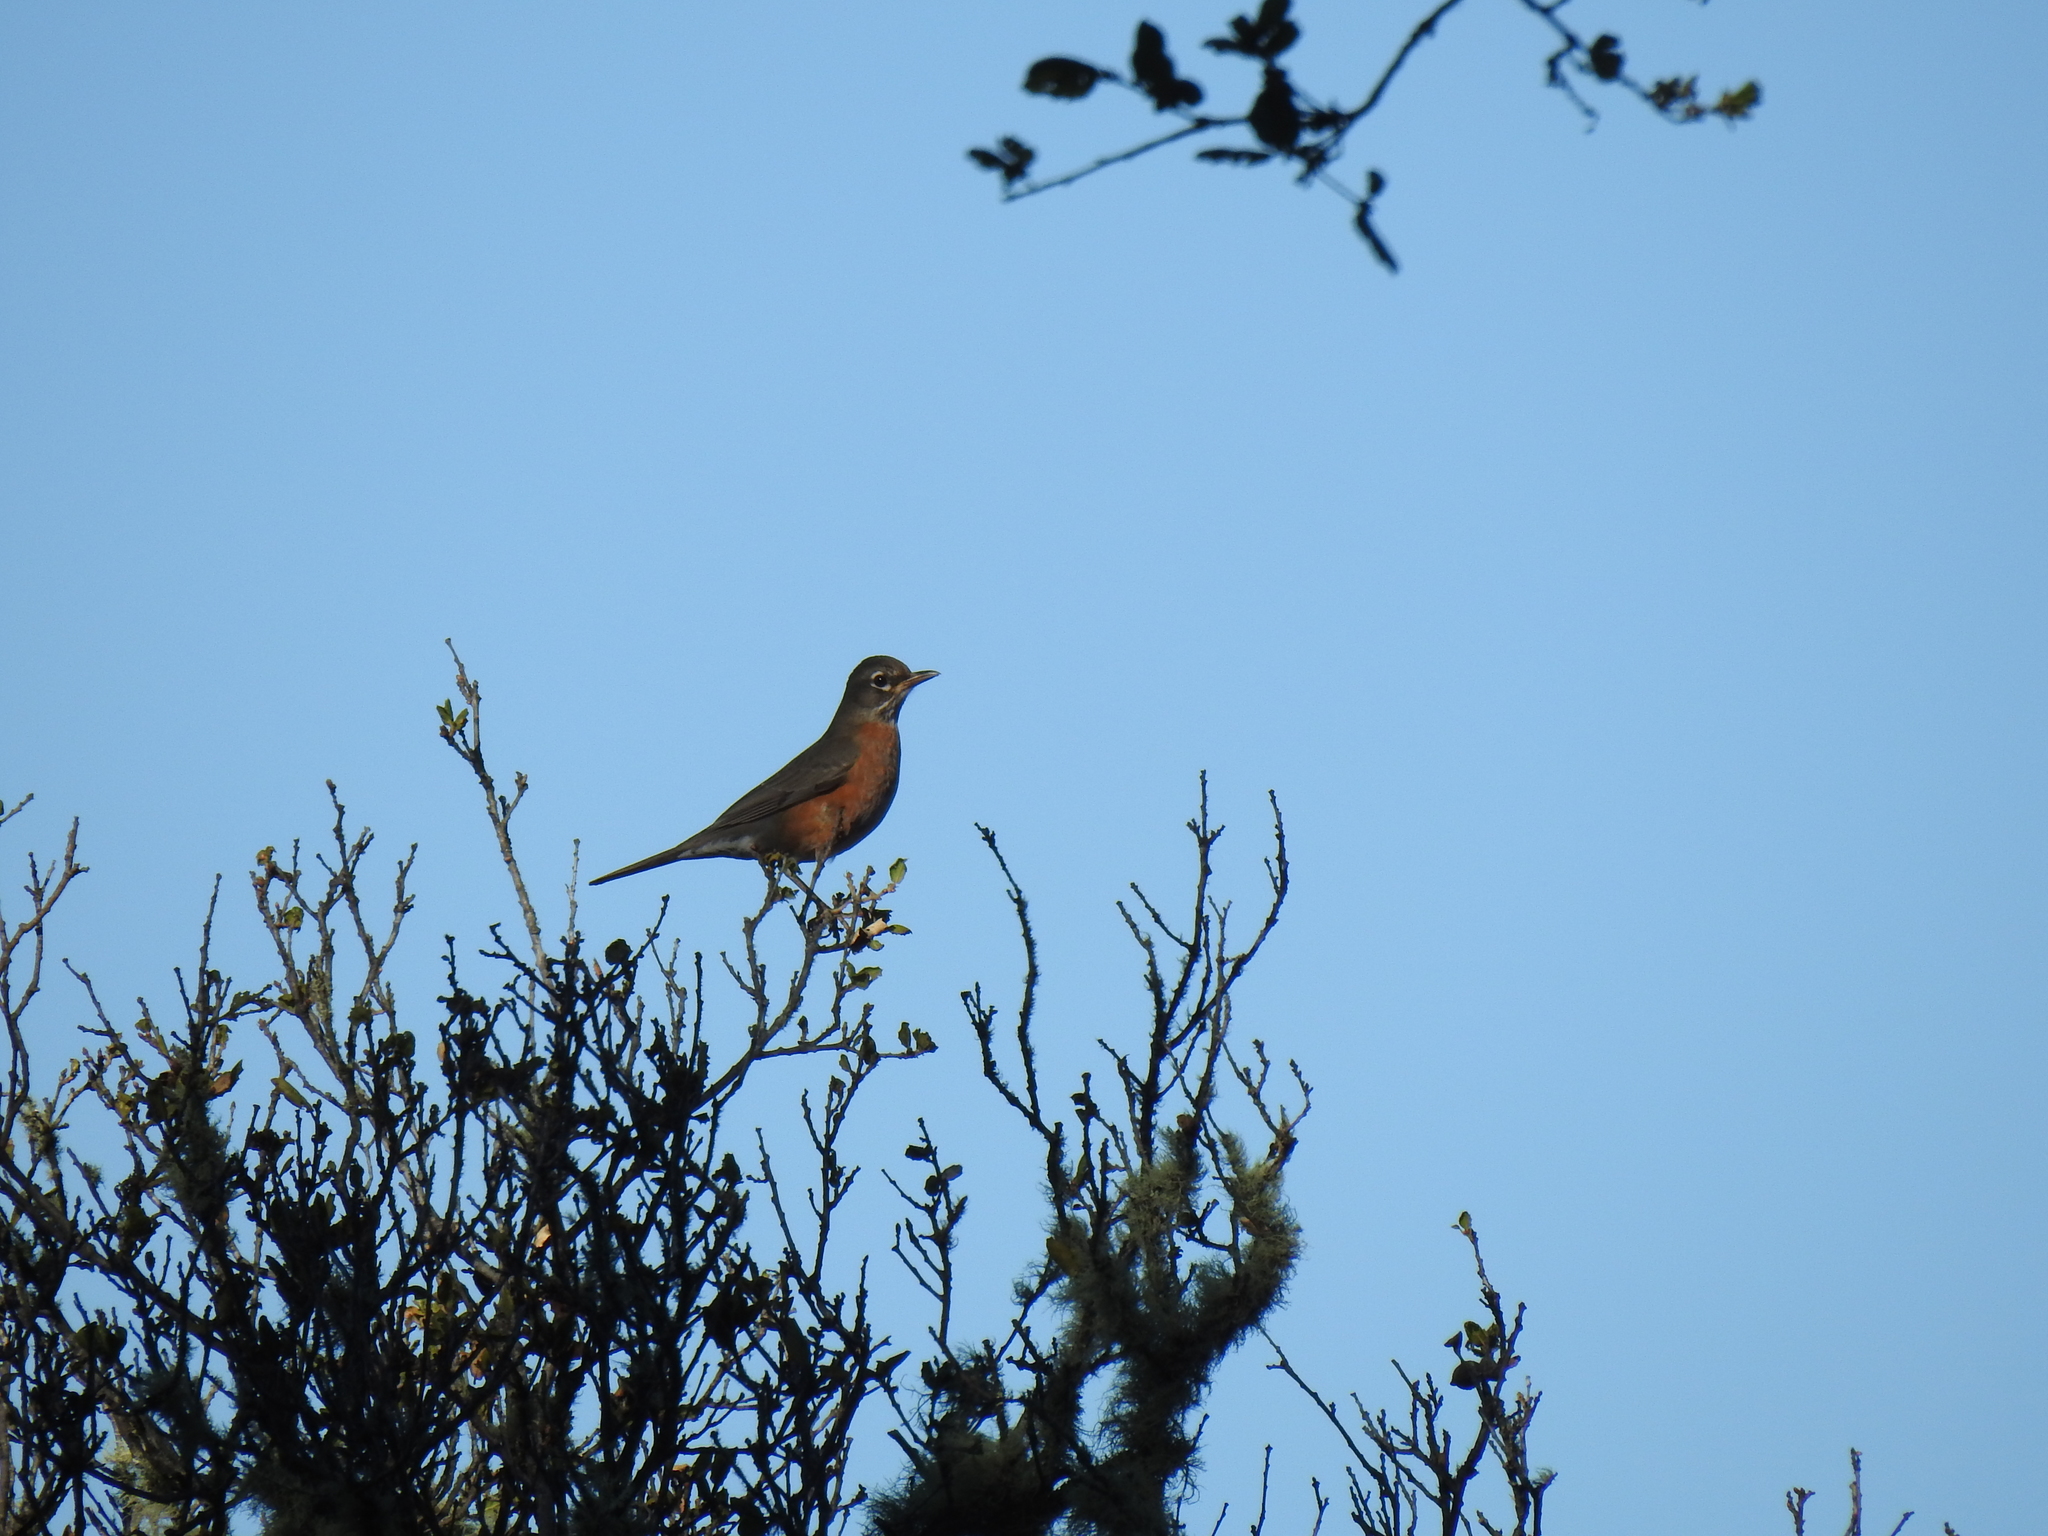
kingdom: Animalia
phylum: Chordata
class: Aves
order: Passeriformes
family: Turdidae
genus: Turdus
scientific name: Turdus migratorius
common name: American robin
